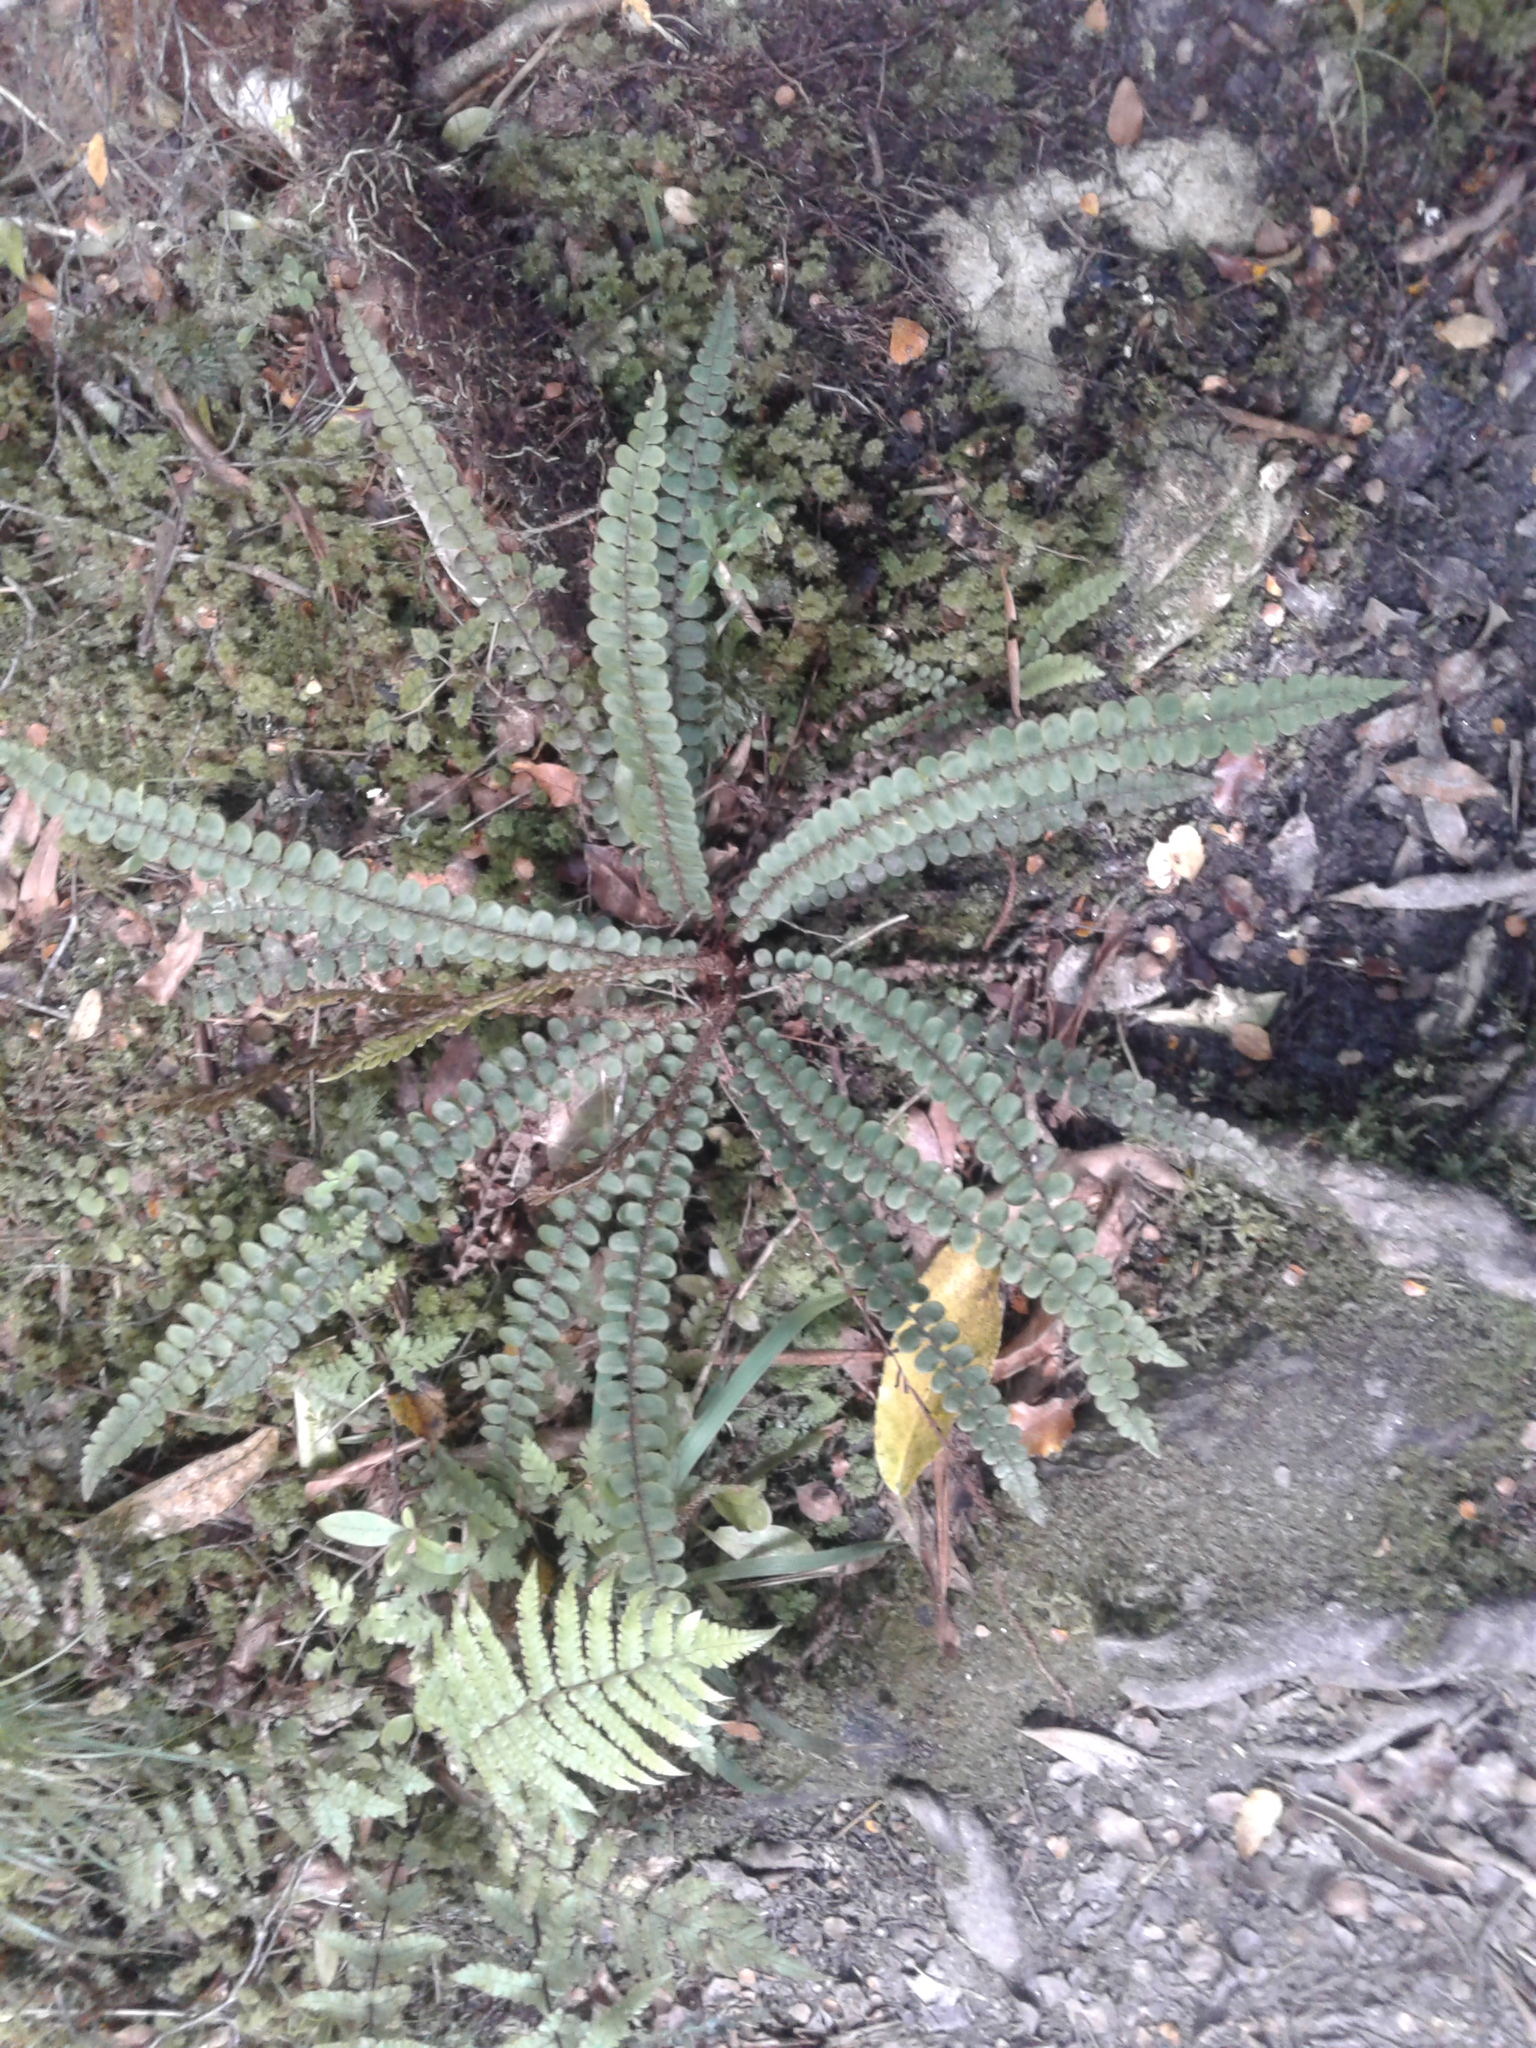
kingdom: Plantae
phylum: Tracheophyta
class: Polypodiopsida
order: Polypodiales
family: Blechnaceae
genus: Cranfillia
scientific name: Cranfillia fluviatilis
